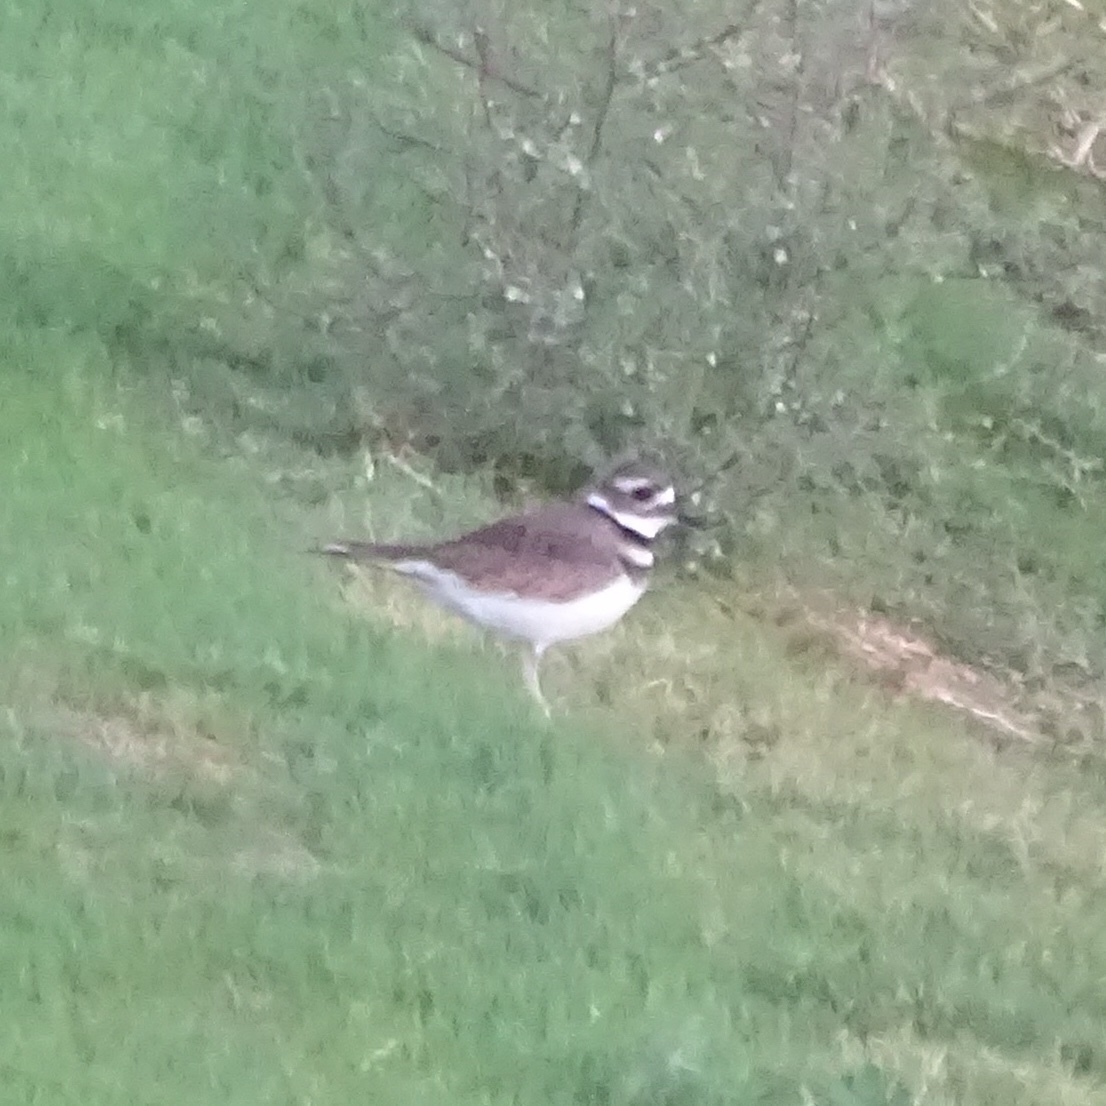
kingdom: Animalia
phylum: Chordata
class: Aves
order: Charadriiformes
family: Charadriidae
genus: Charadrius
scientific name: Charadrius vociferus
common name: Killdeer
